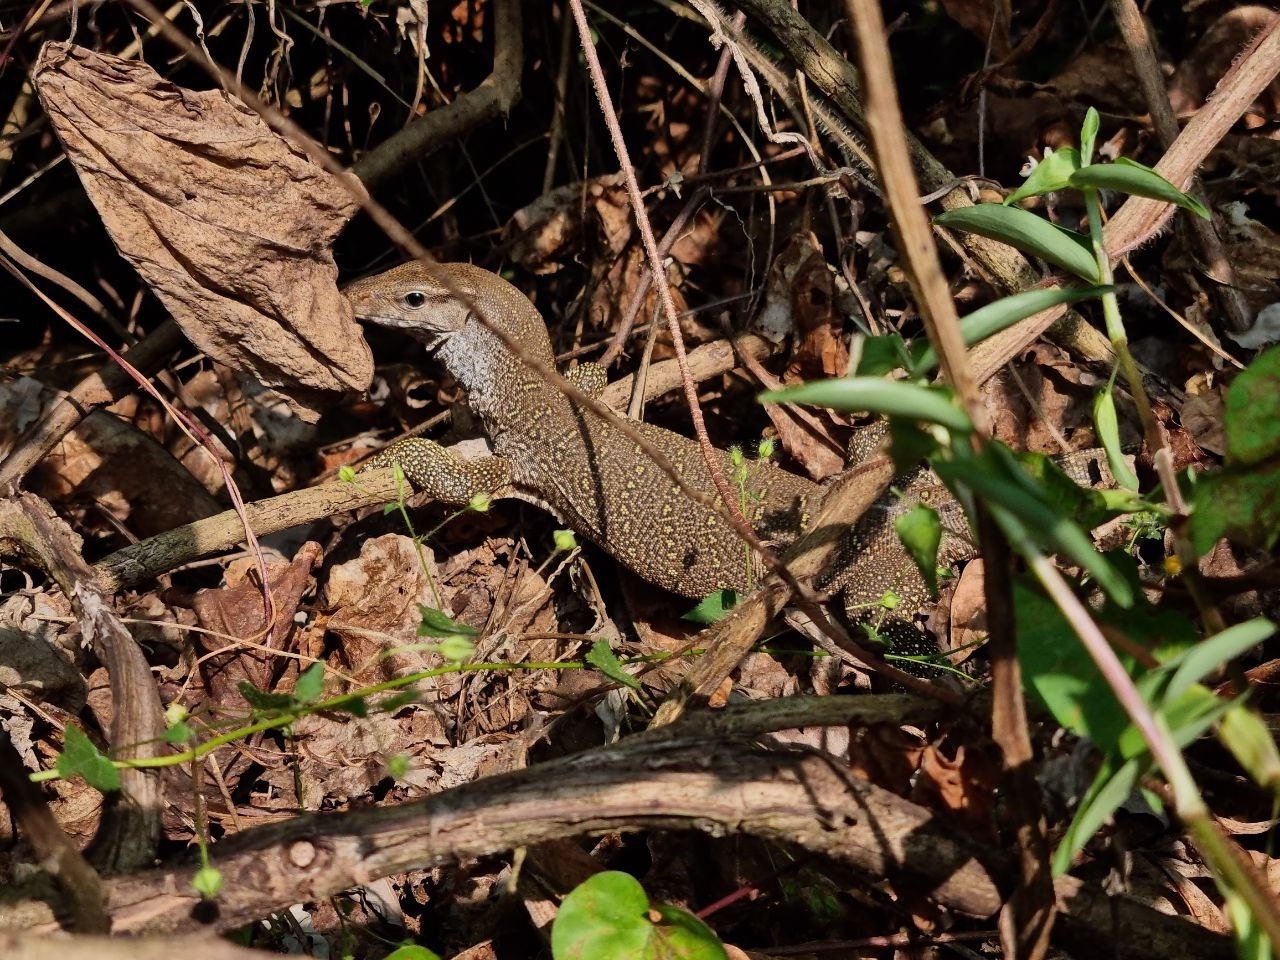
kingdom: Animalia
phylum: Chordata
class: Squamata
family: Varanidae
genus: Varanus
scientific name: Varanus bengalensis
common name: Bengal monitor
